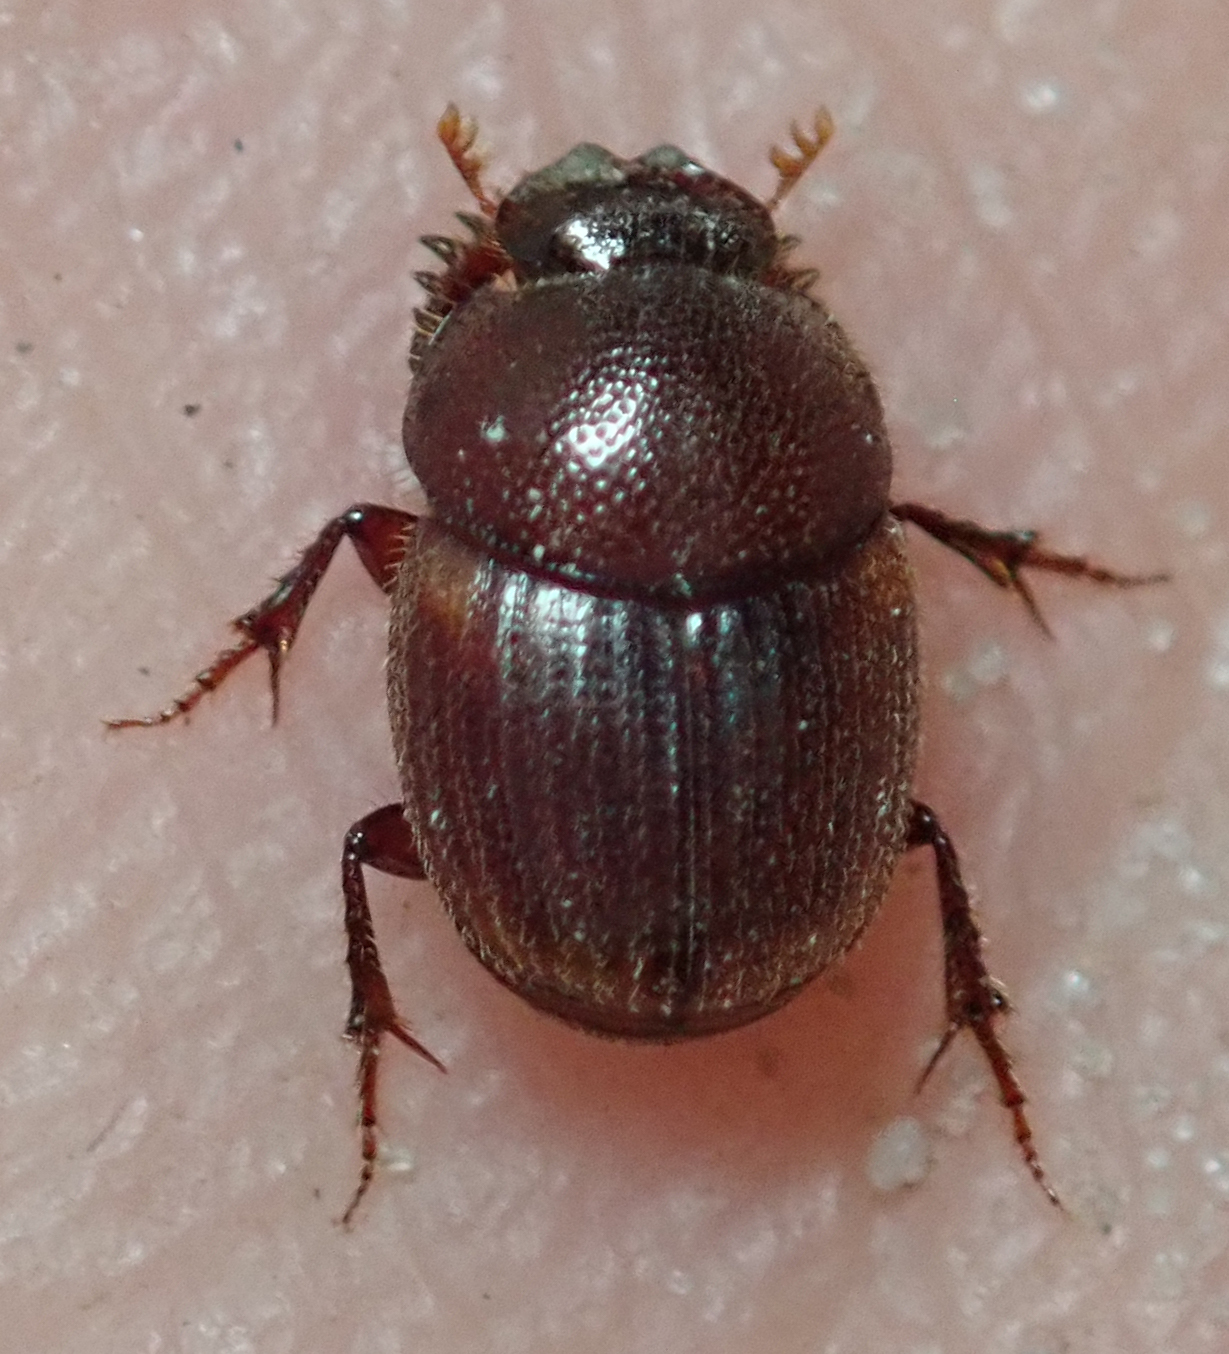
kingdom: Animalia
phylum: Arthropoda
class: Insecta
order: Coleoptera
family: Scarabaeidae
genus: Onthophagus
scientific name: Onthophagus quadrimaculatus
